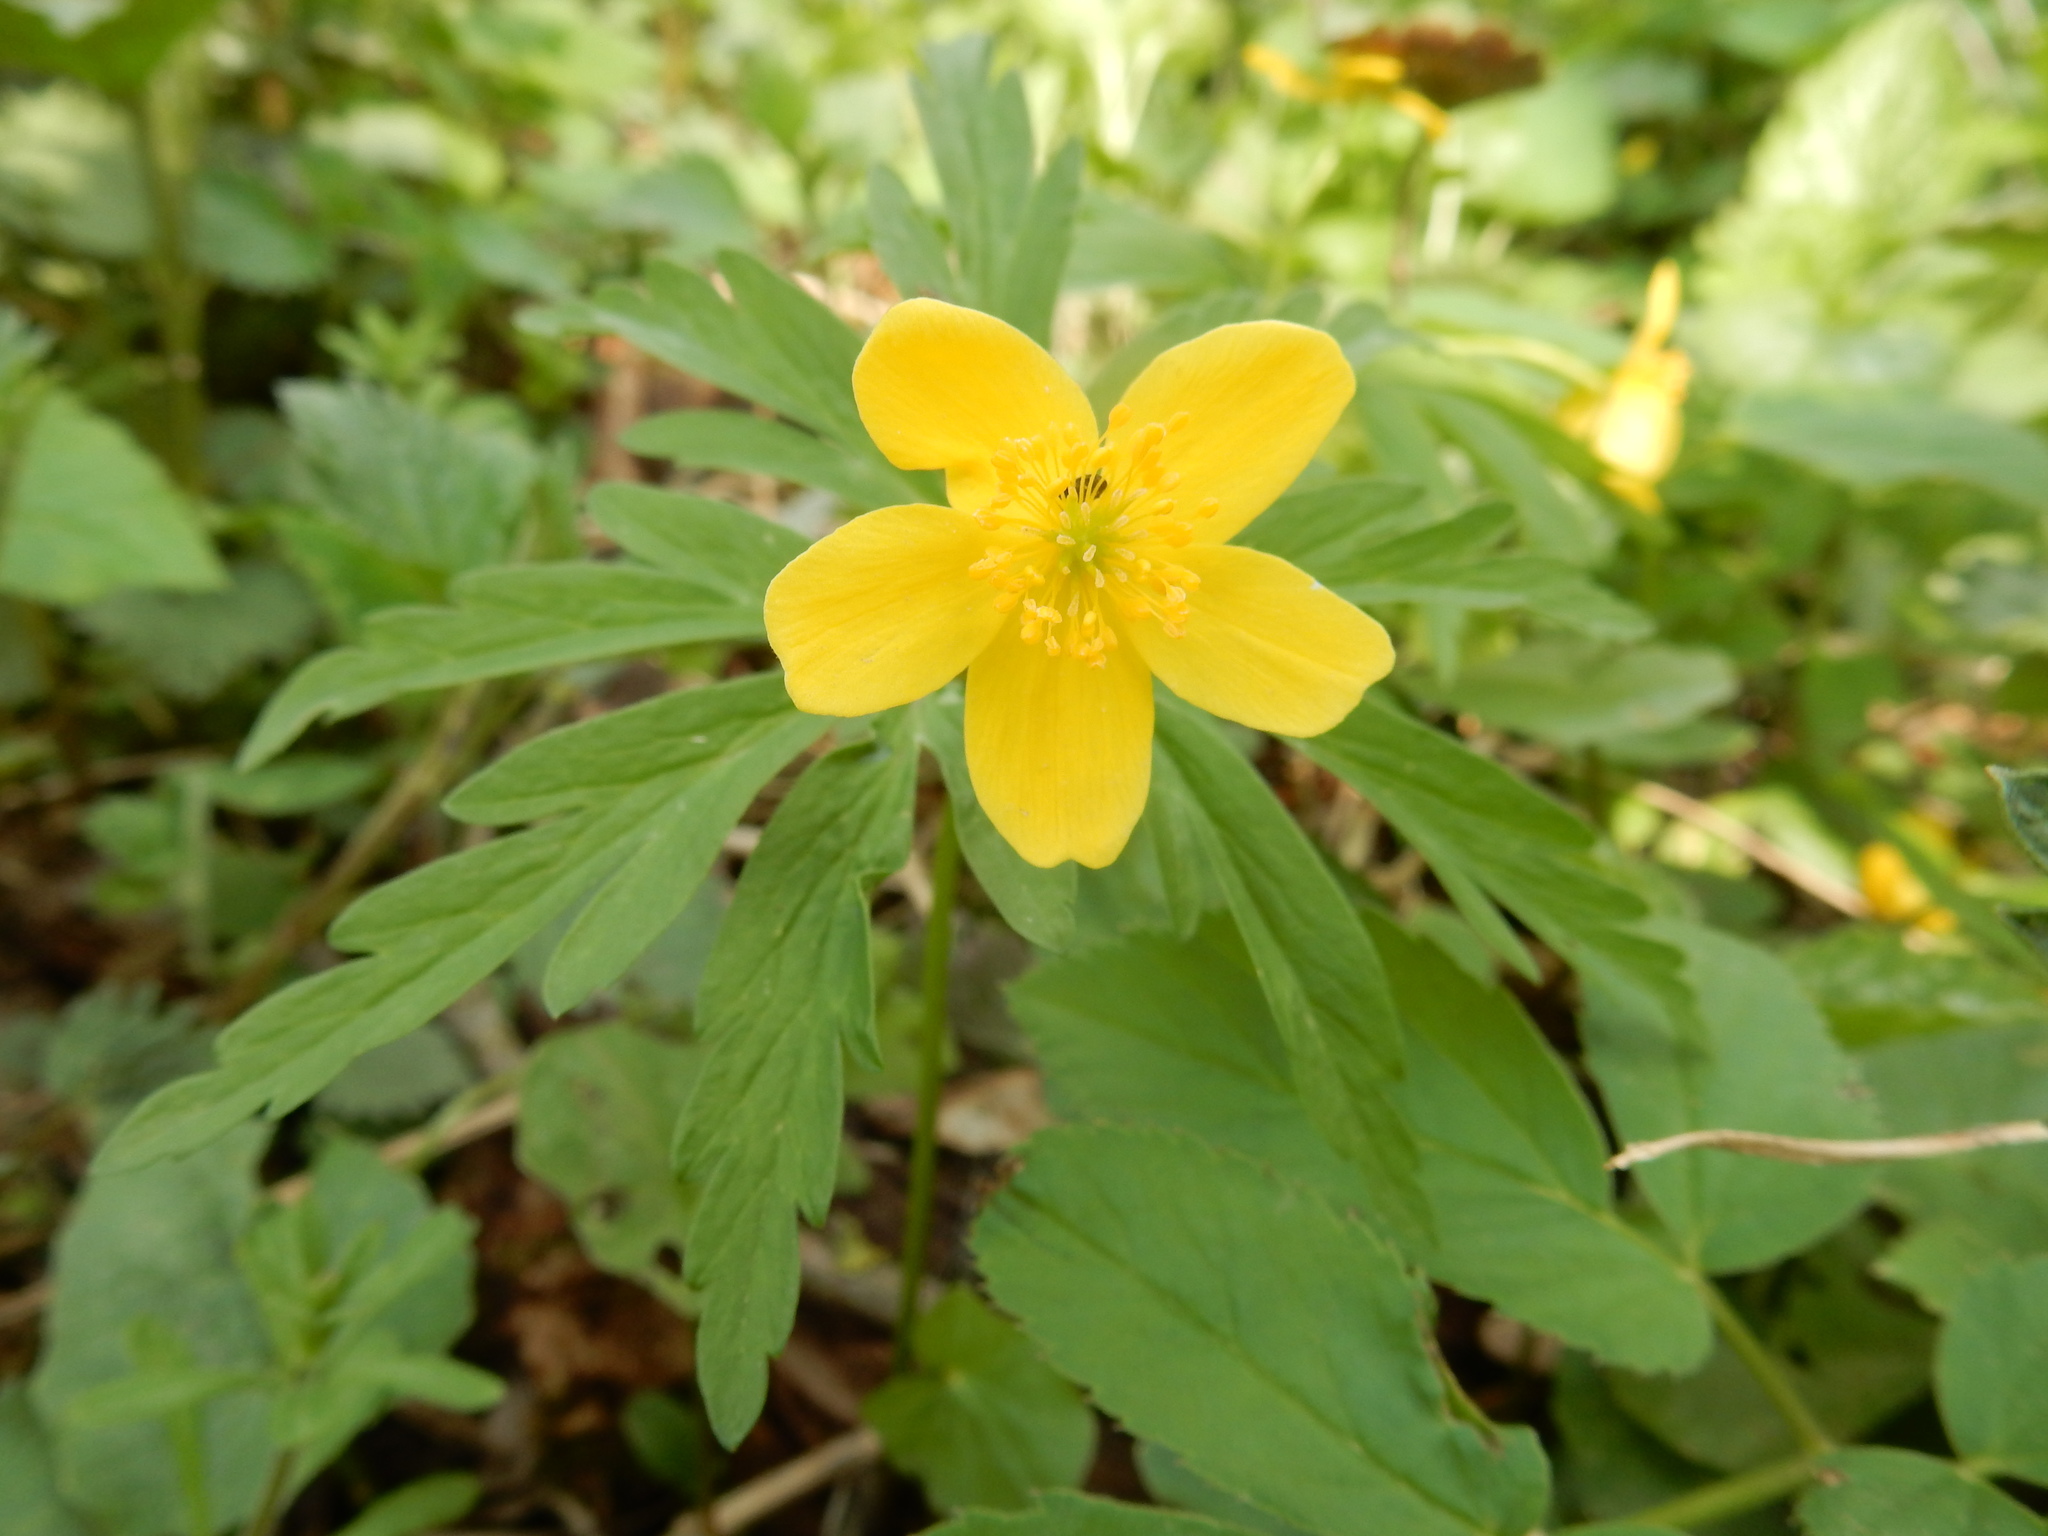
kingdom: Plantae
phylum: Tracheophyta
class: Magnoliopsida
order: Ranunculales
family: Ranunculaceae
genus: Anemone
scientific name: Anemone ranunculoides
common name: Yellow anemone
